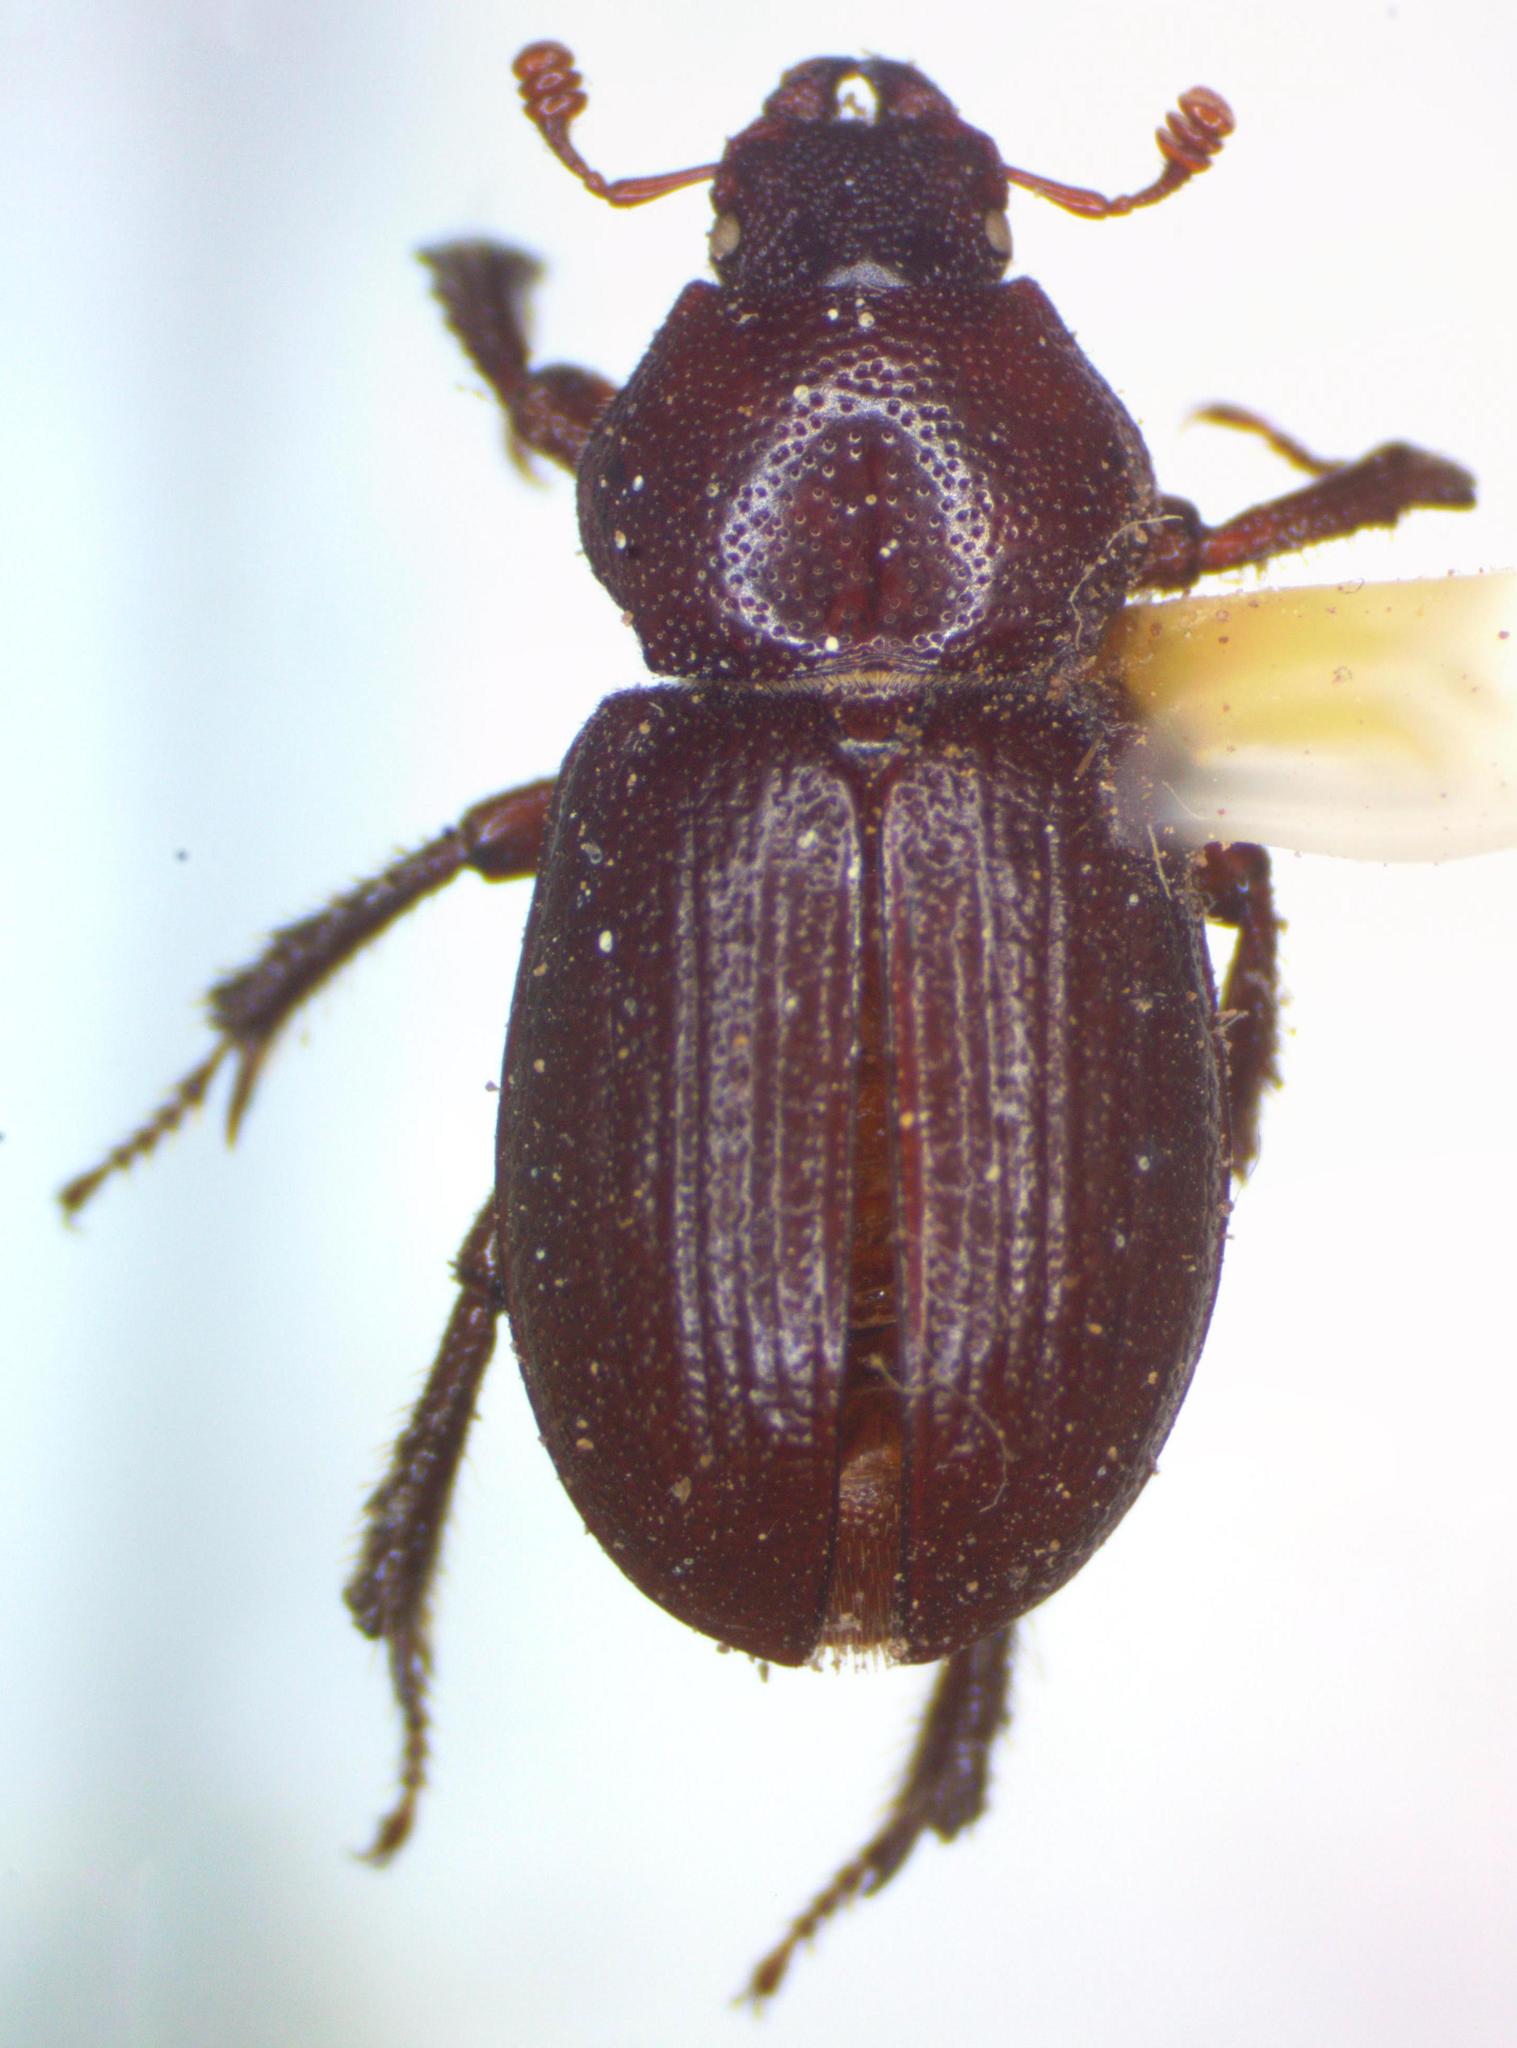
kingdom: Animalia
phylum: Arthropoda
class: Insecta
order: Coleoptera
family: Lucanidae
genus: Platyceroides
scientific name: Platyceroides keeni
